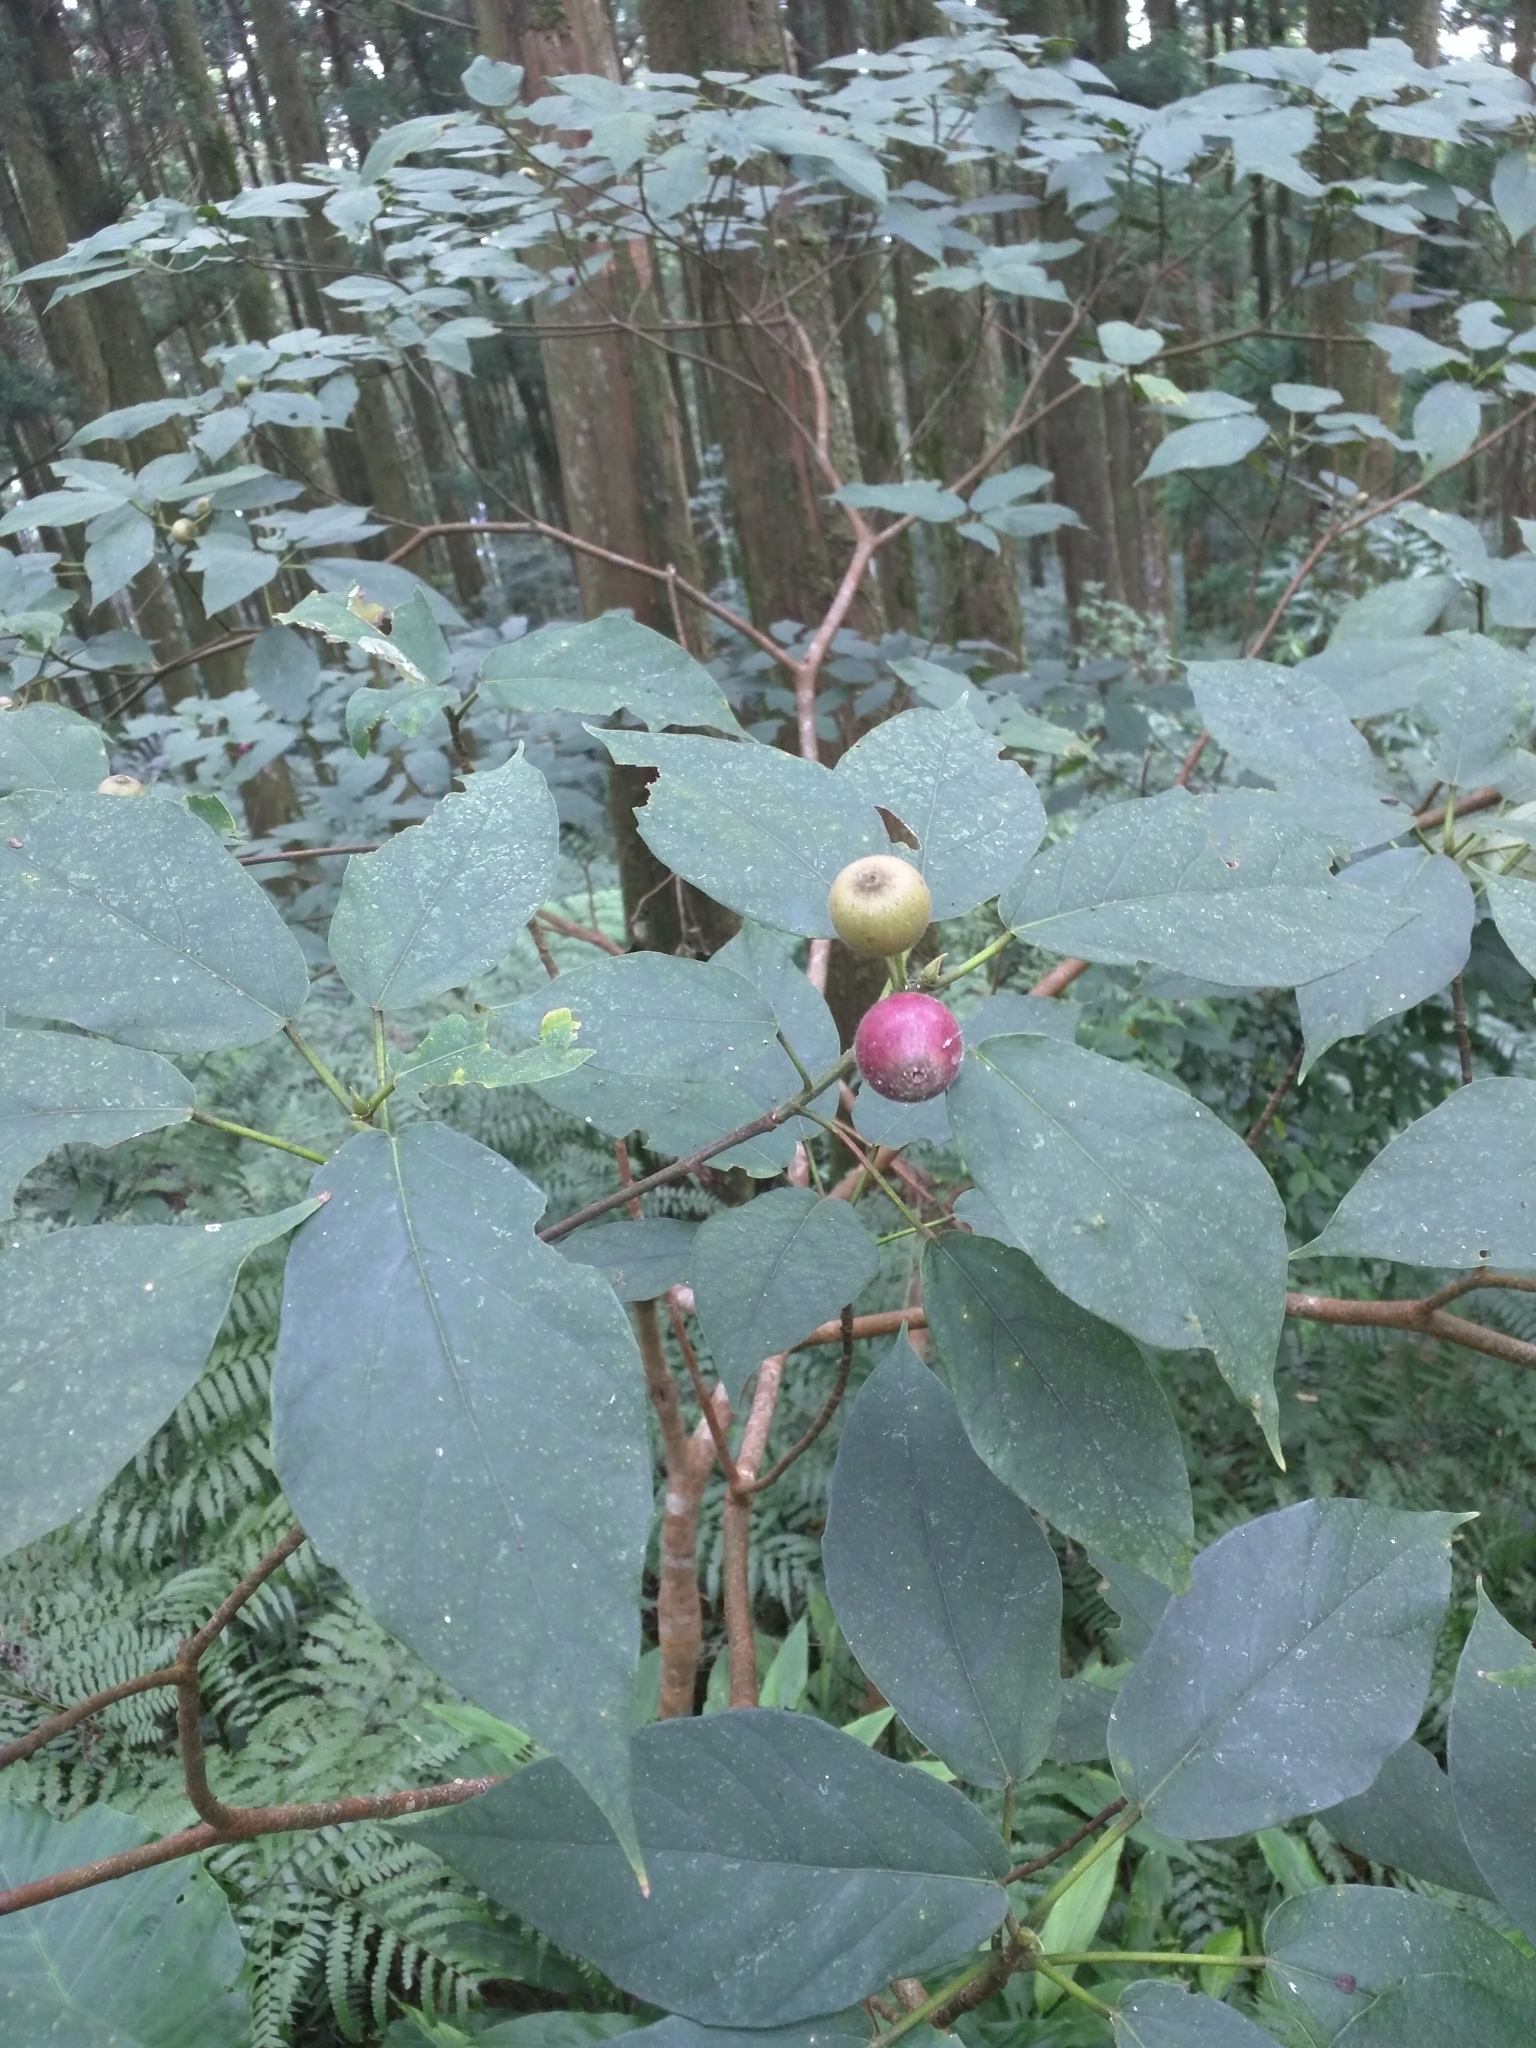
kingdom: Plantae
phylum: Tracheophyta
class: Magnoliopsida
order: Rosales
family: Moraceae
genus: Ficus
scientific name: Ficus erecta
